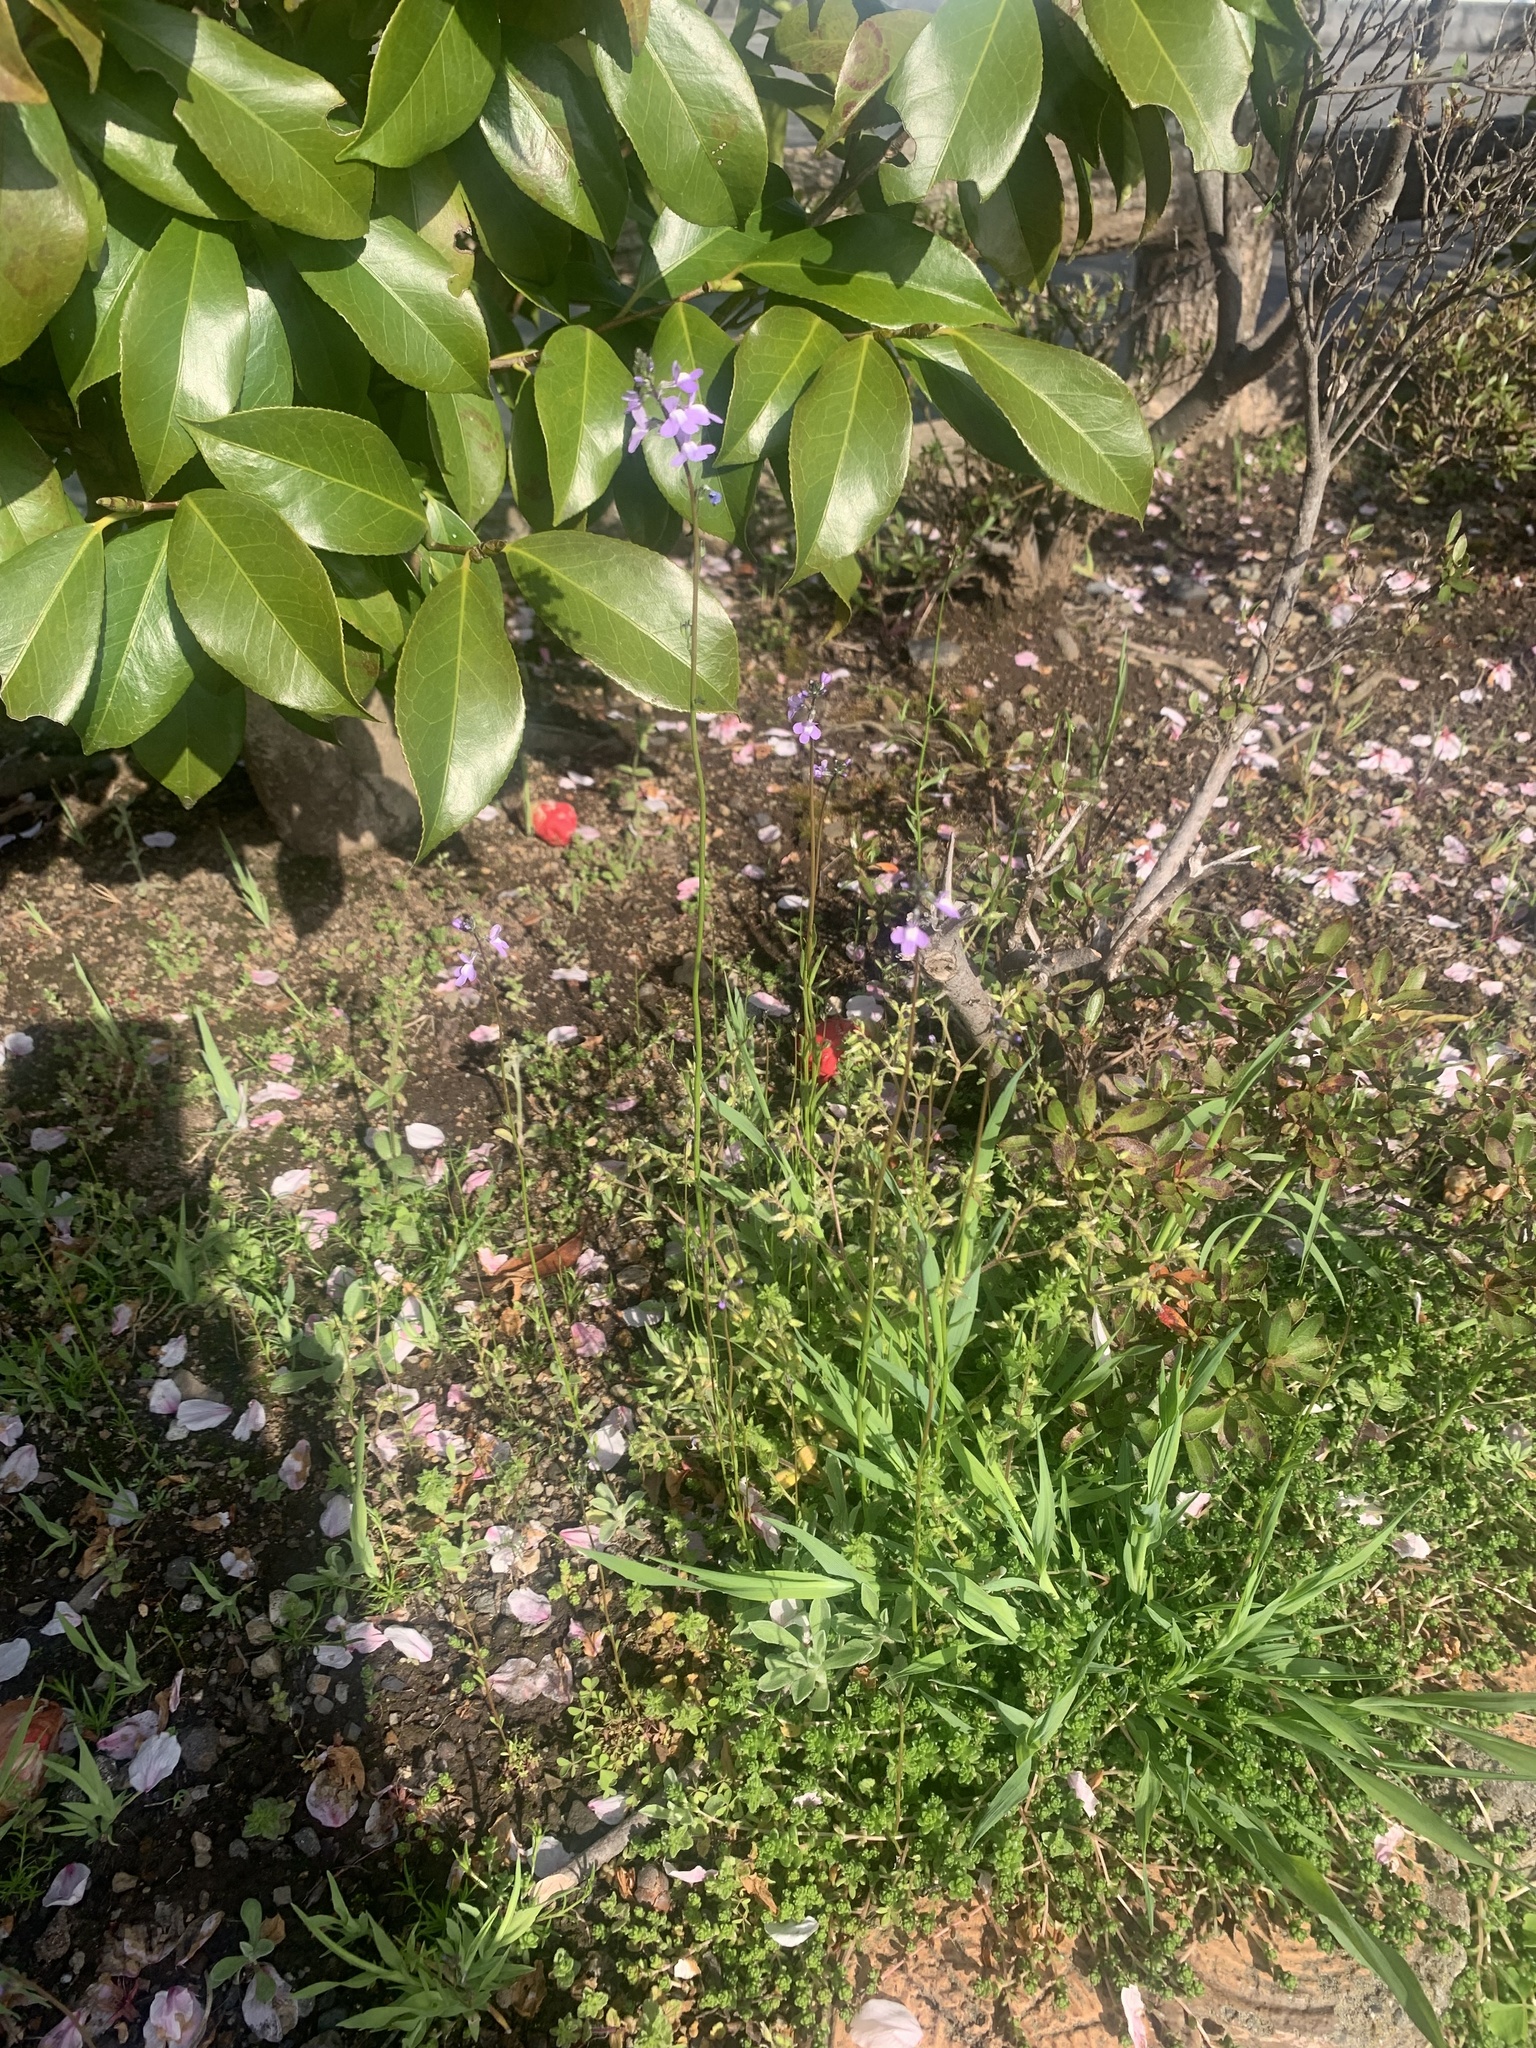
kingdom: Plantae
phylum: Tracheophyta
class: Magnoliopsida
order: Lamiales
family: Plantaginaceae
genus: Nuttallanthus
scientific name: Nuttallanthus canadensis
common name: Blue toadflax
